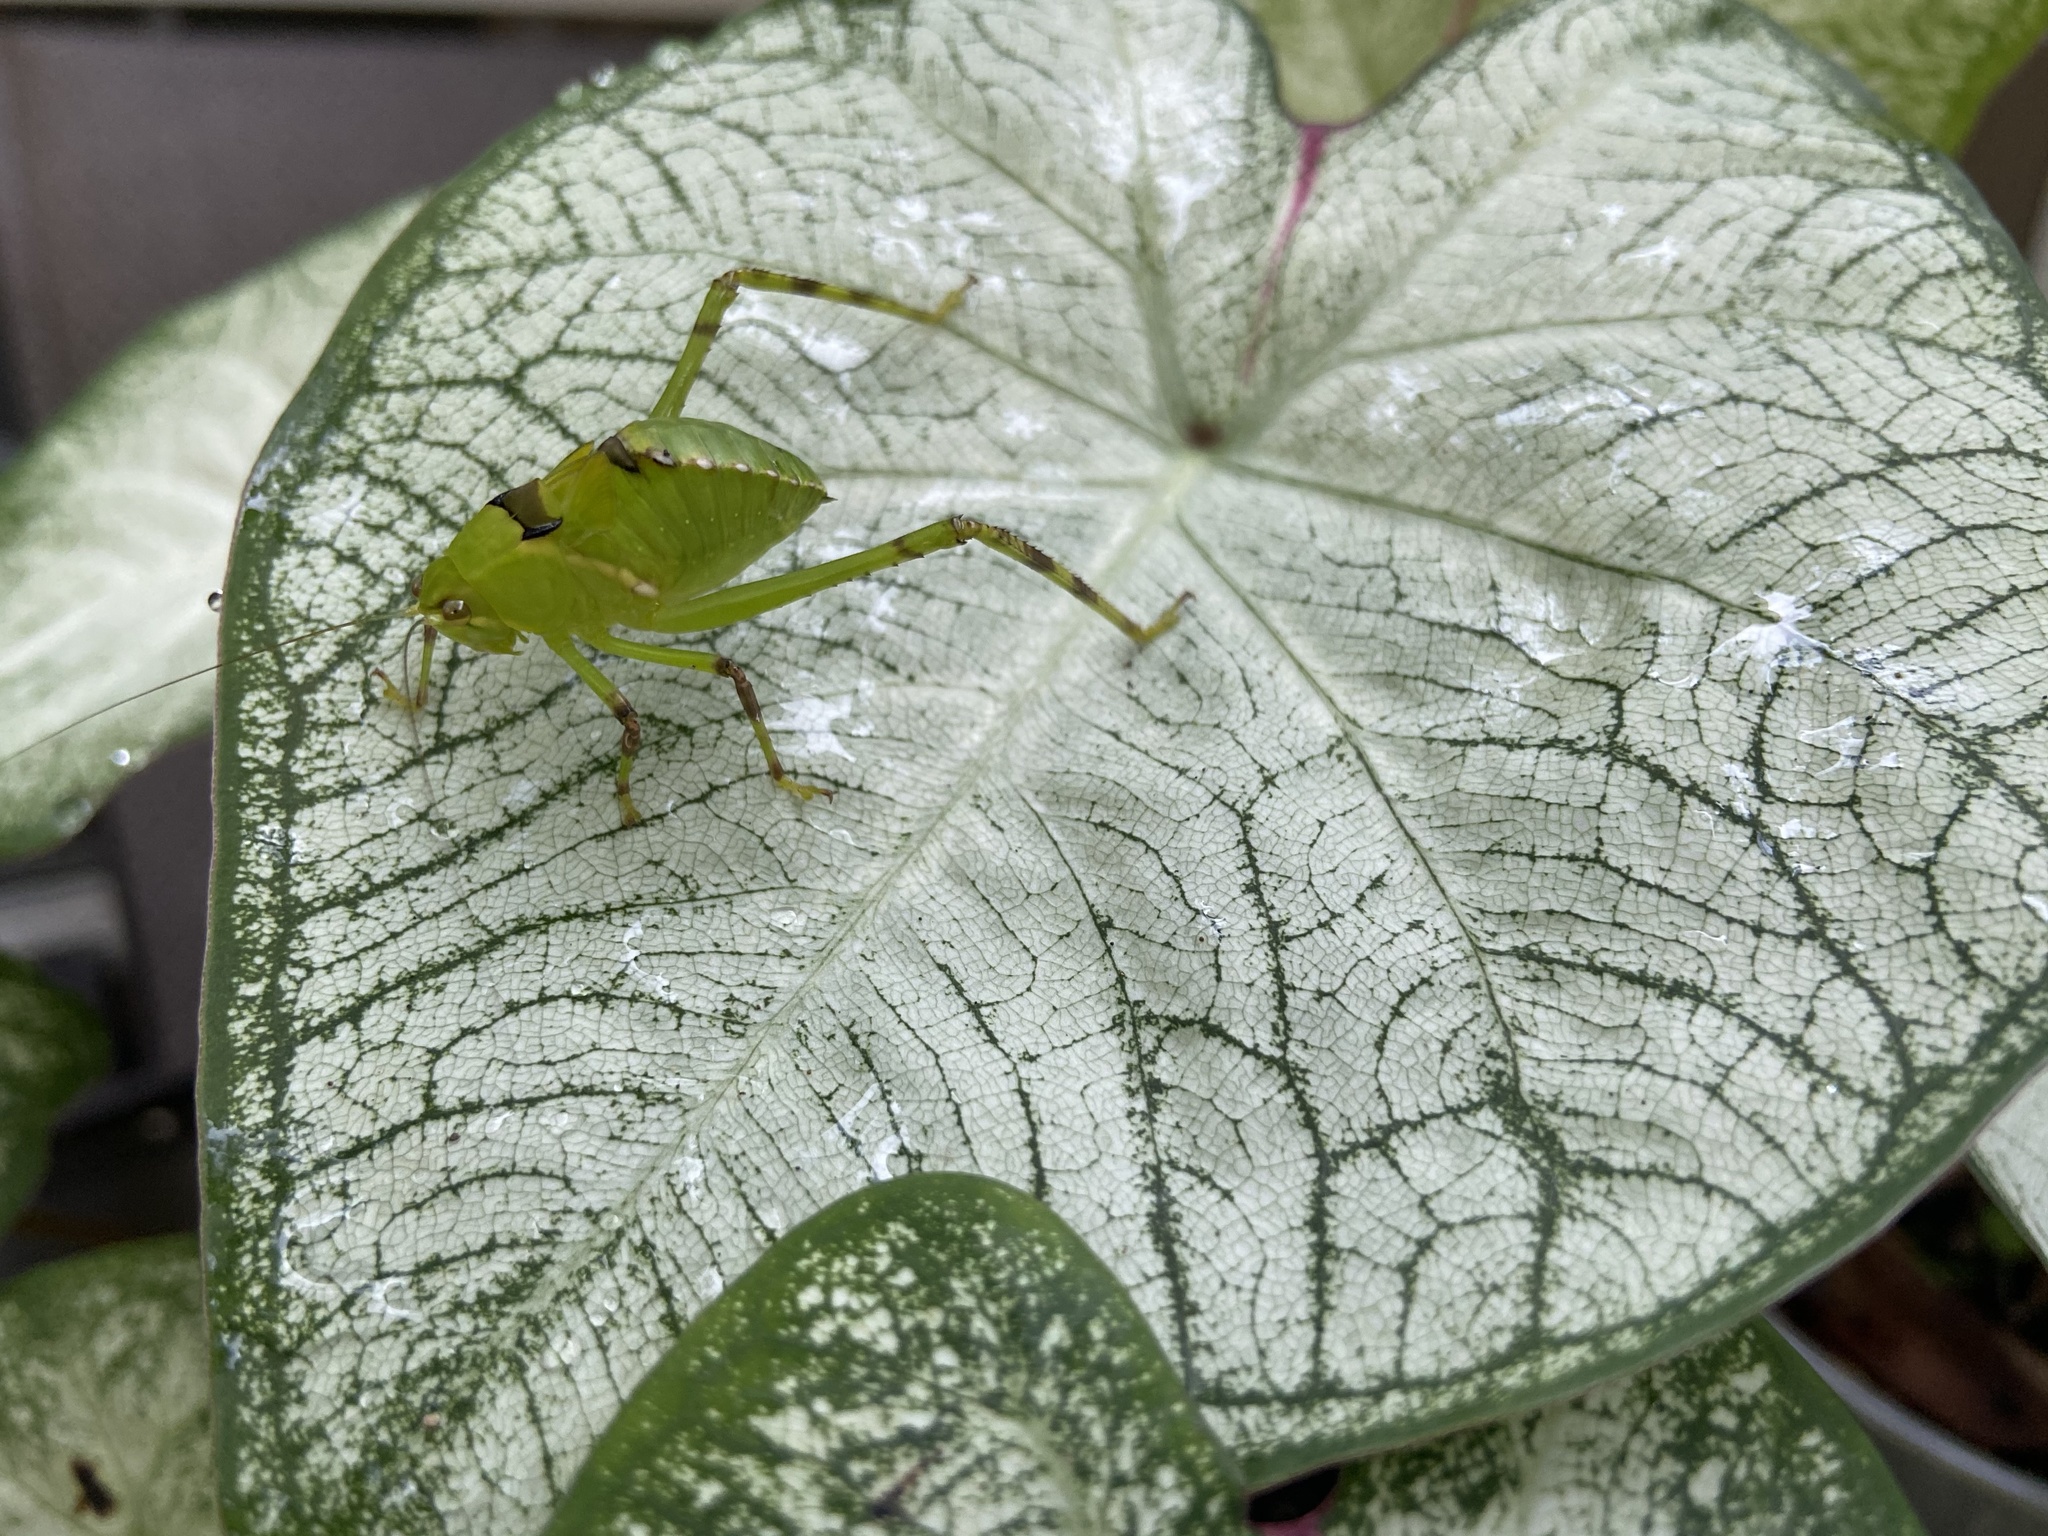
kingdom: Animalia
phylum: Arthropoda
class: Insecta
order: Orthoptera
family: Tettigoniidae
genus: Stilpnochlora
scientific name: Stilpnochlora couloniana
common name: Giant katydid
